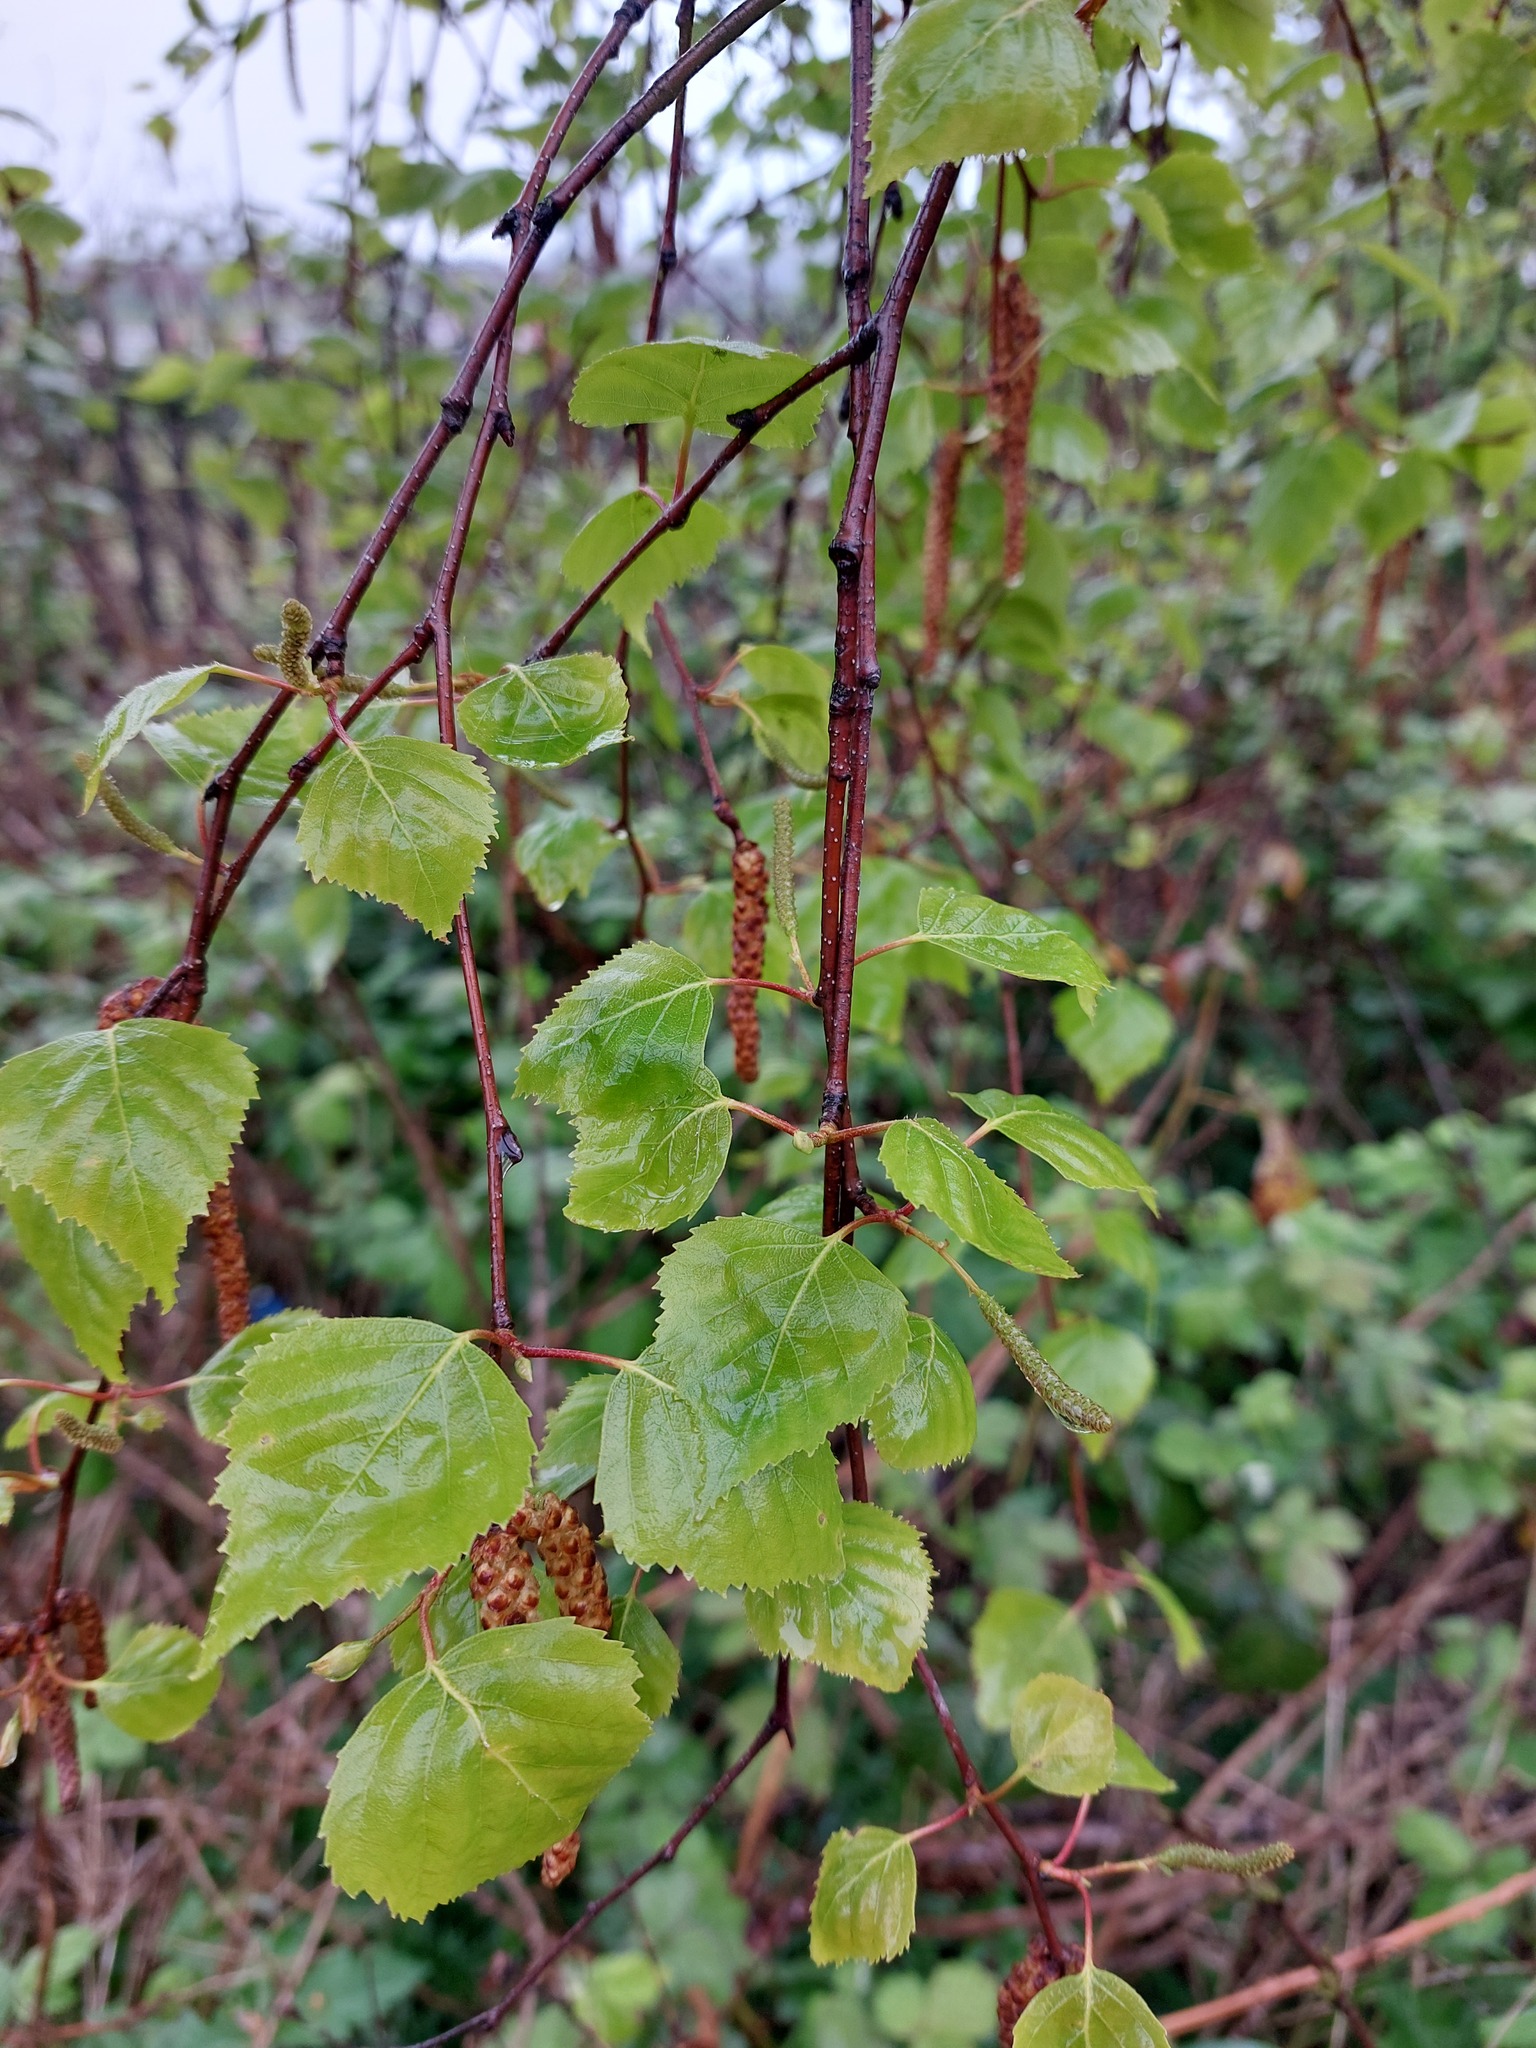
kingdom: Plantae
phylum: Tracheophyta
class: Magnoliopsida
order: Fagales
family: Betulaceae
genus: Betula
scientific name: Betula pendula
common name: Silver birch
